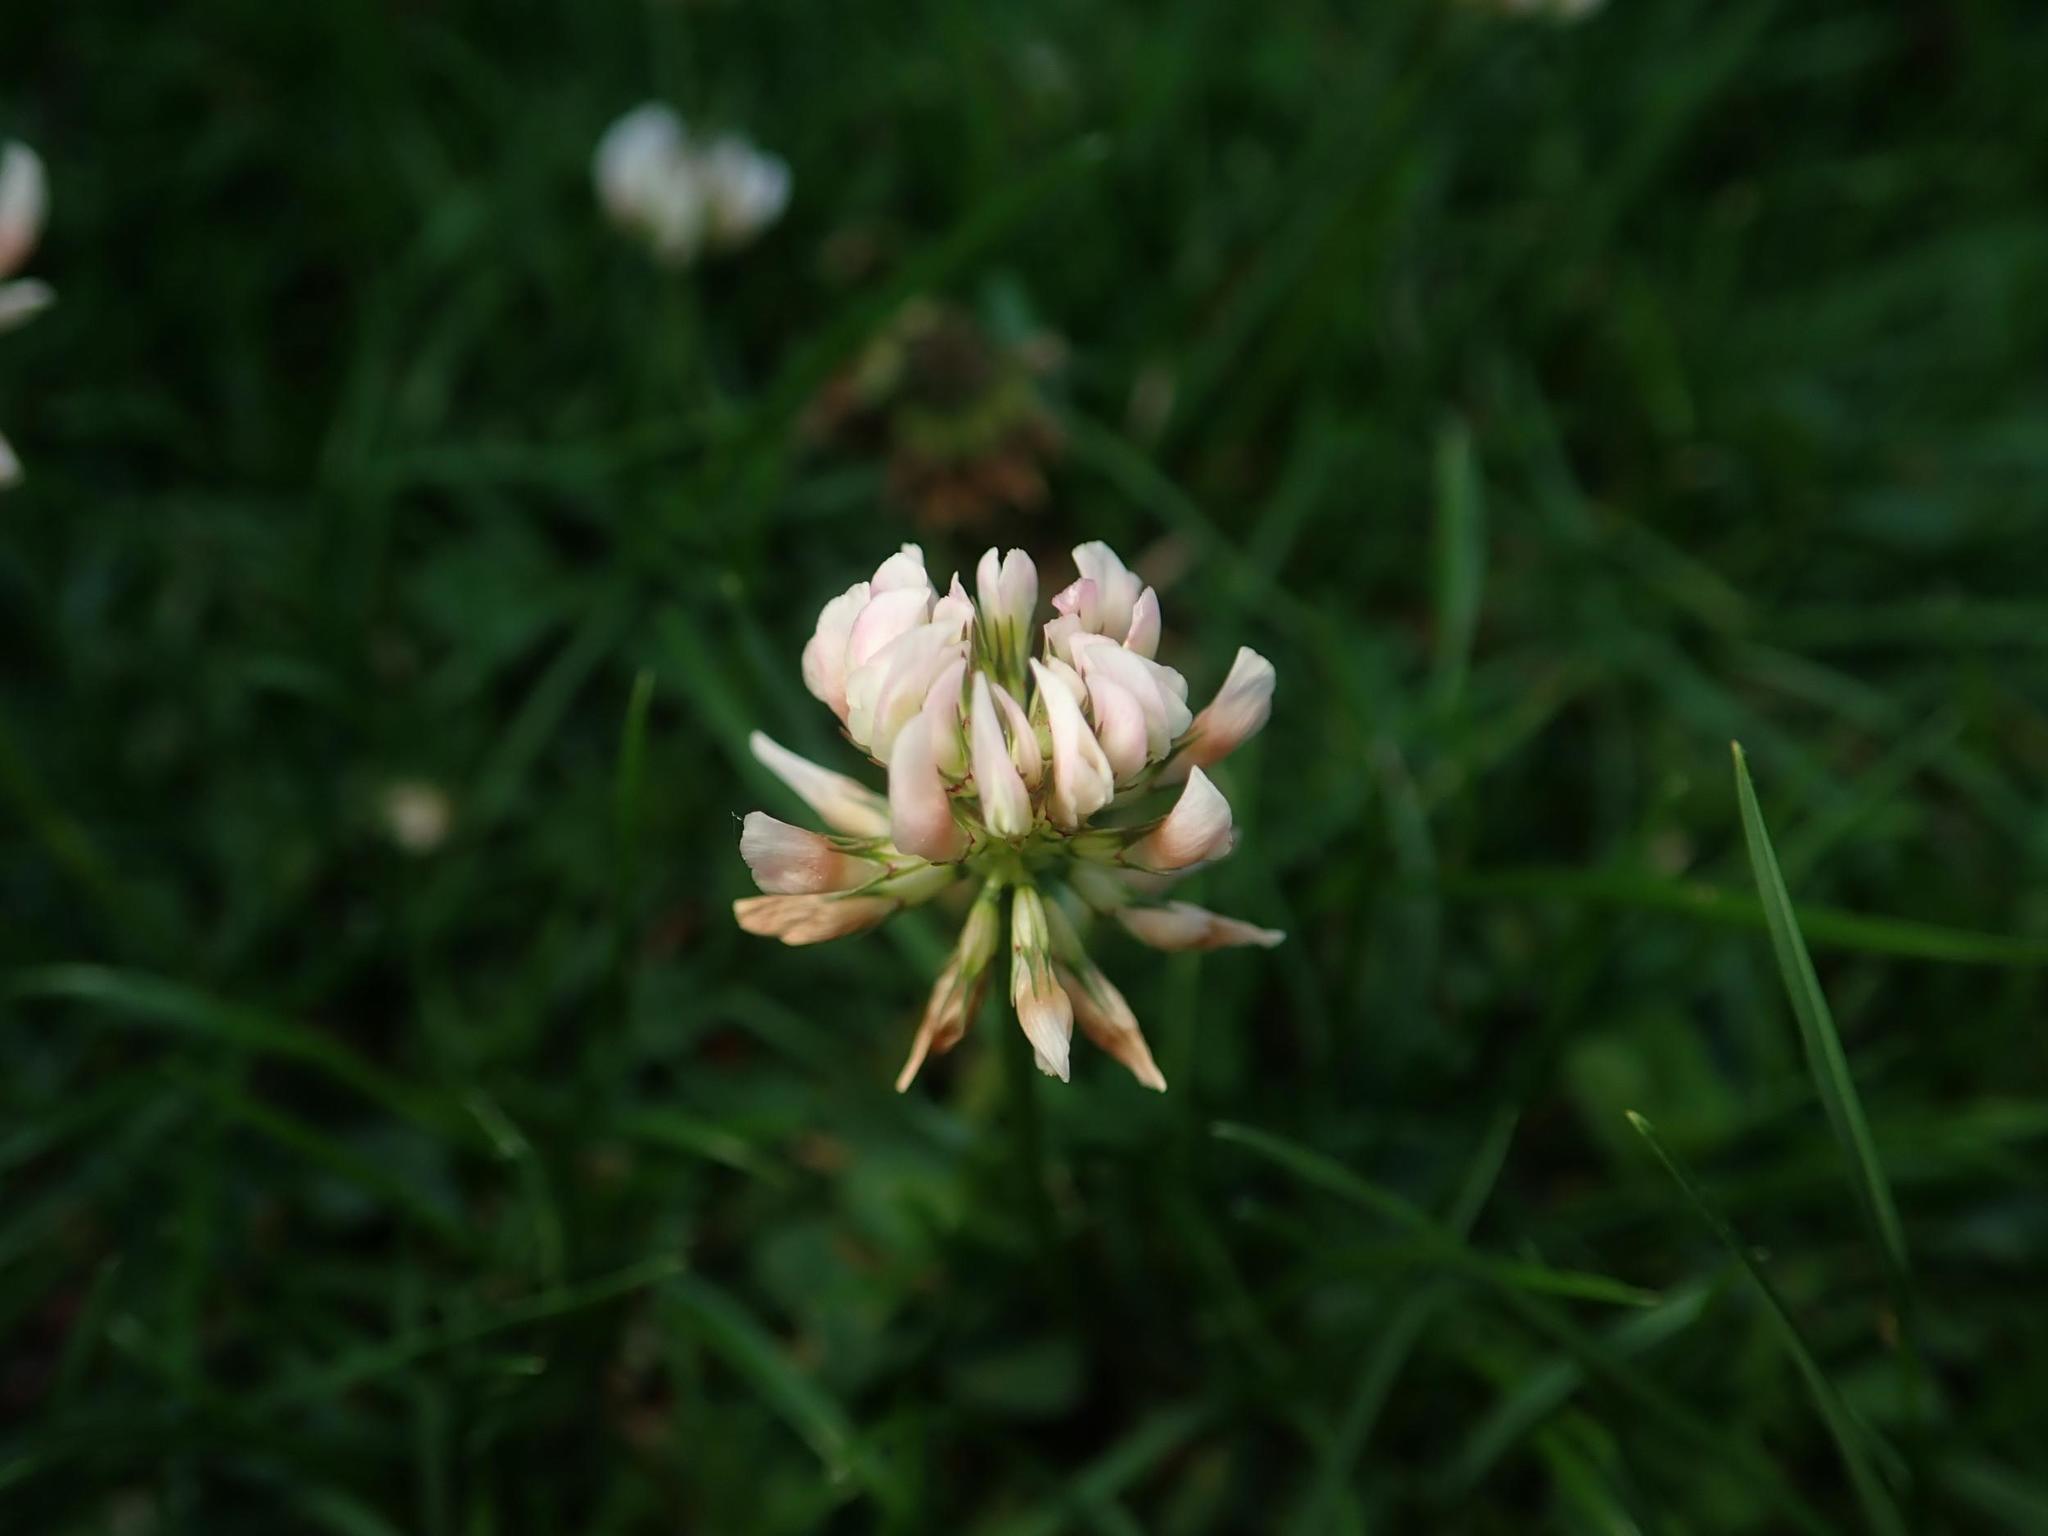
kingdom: Plantae
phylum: Tracheophyta
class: Magnoliopsida
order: Fabales
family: Fabaceae
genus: Trifolium
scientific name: Trifolium repens
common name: White clover
